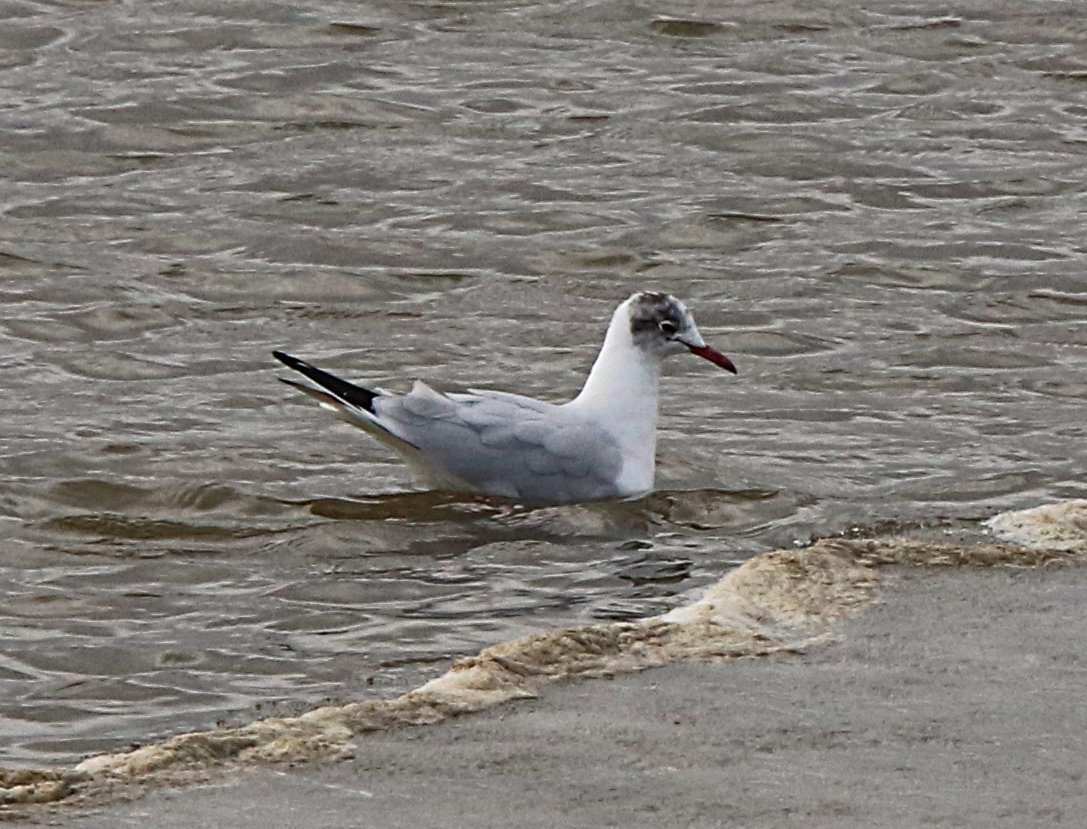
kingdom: Animalia
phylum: Chordata
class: Aves
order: Charadriiformes
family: Laridae
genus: Chroicocephalus
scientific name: Chroicocephalus ridibundus
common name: Black-headed gull
